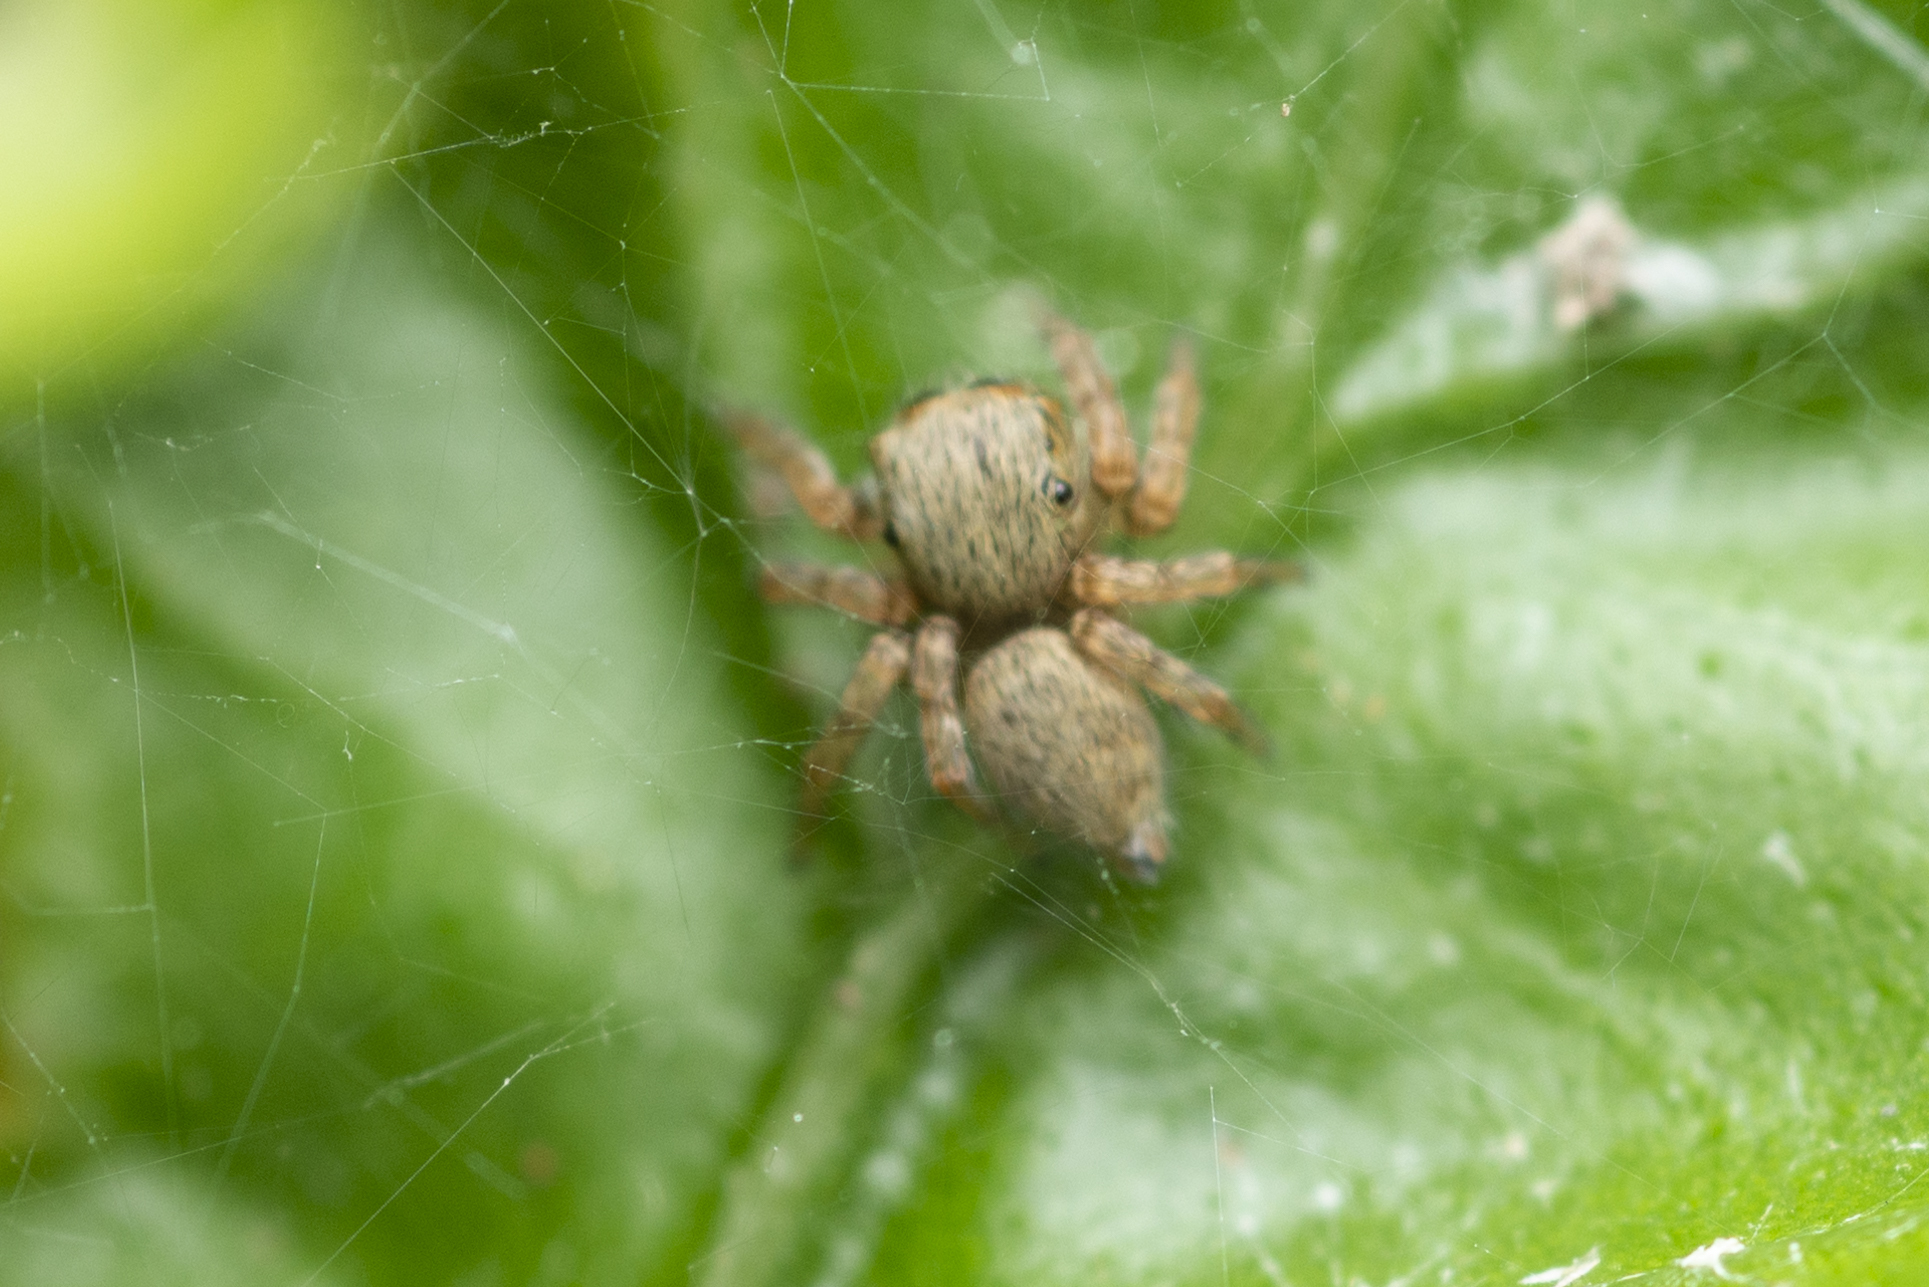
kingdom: Animalia
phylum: Arthropoda
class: Arachnida
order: Araneae
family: Salticidae
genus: Carrhotus
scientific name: Carrhotus sannio
